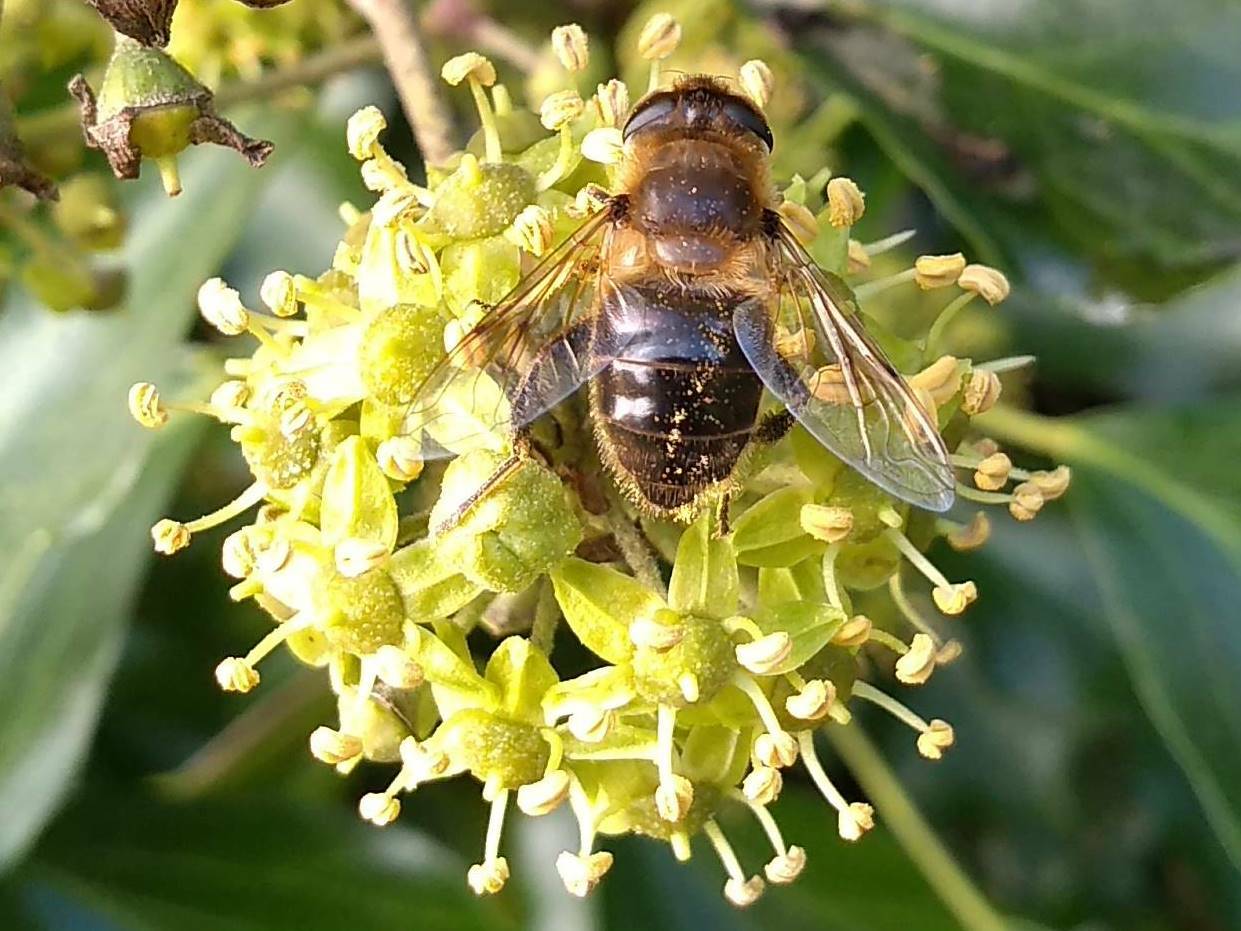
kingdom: Animalia
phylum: Arthropoda
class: Insecta
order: Diptera
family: Syrphidae
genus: Eristalis
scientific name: Eristalis tenax
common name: Drone fly
